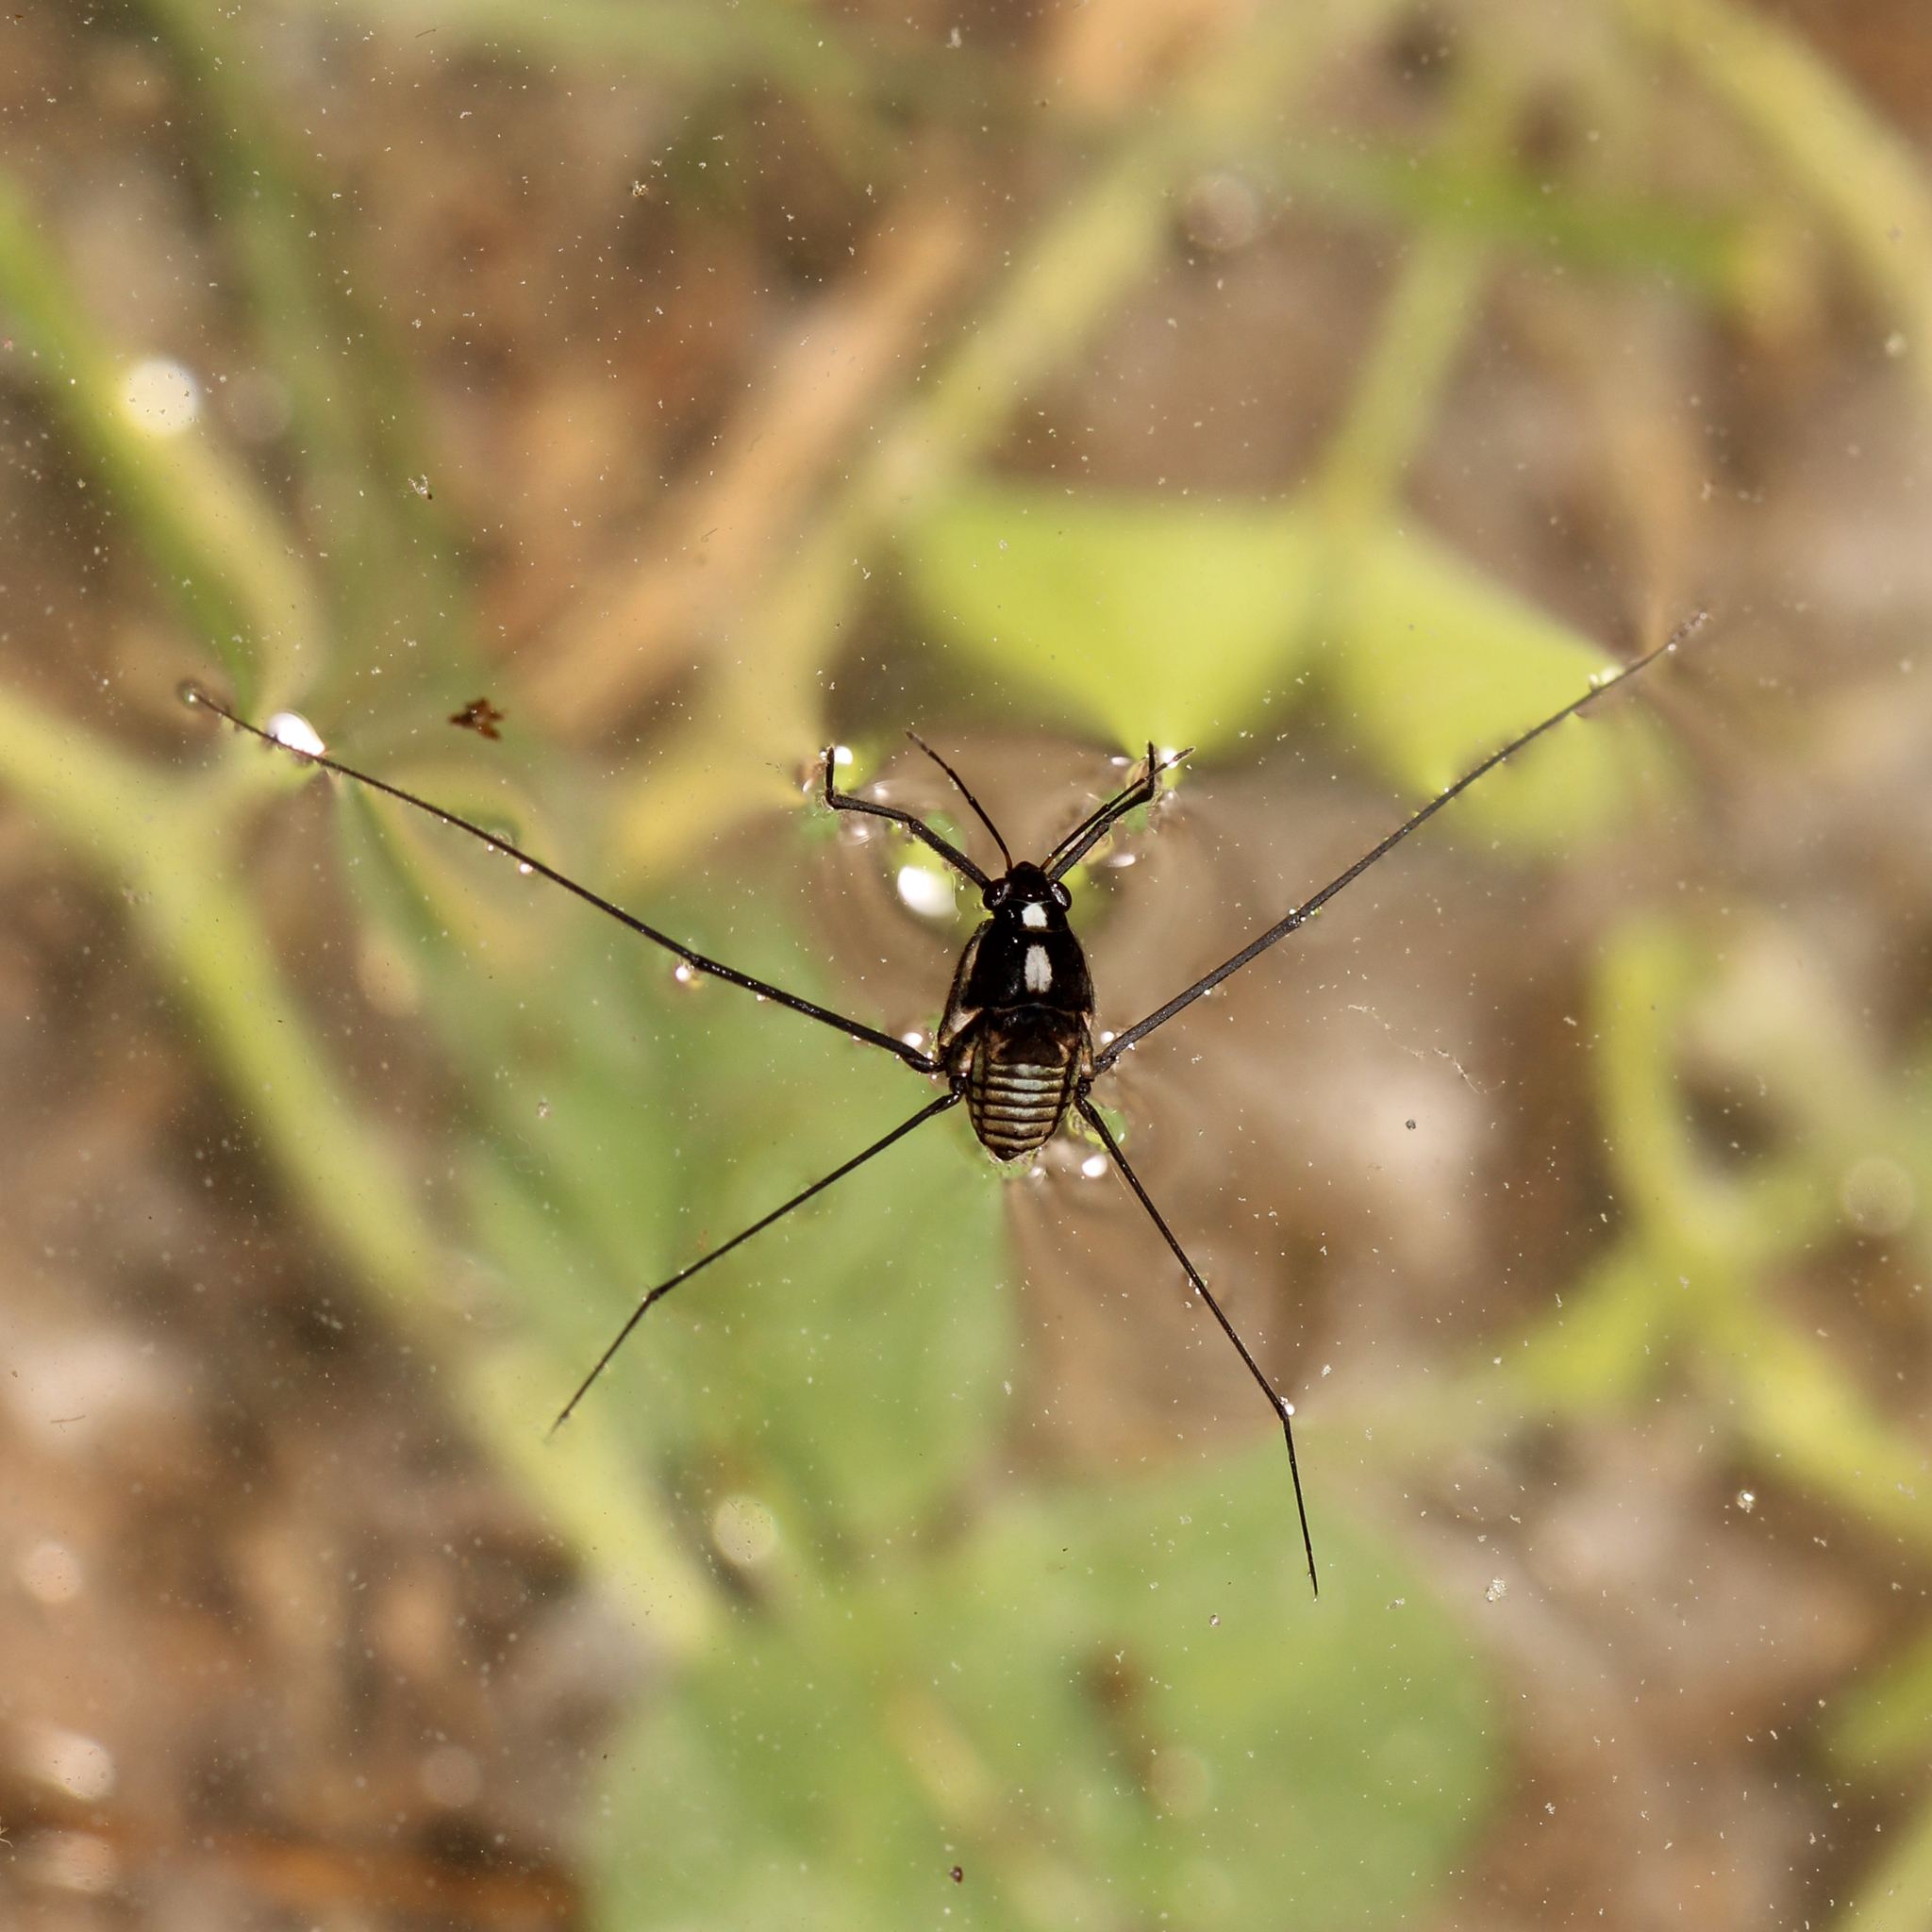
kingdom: Animalia
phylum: Arthropoda
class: Insecta
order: Hemiptera
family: Gerridae
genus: Metrobates
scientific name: Metrobates hesperius
